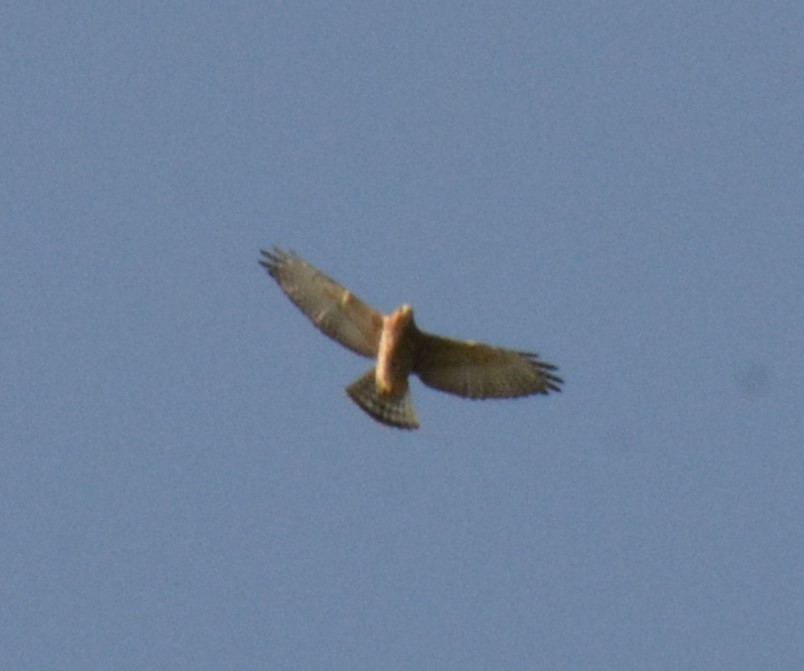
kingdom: Animalia
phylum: Chordata
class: Aves
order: Accipitriformes
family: Accipitridae
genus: Buteo
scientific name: Buteo platypterus
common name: Broad-winged hawk
